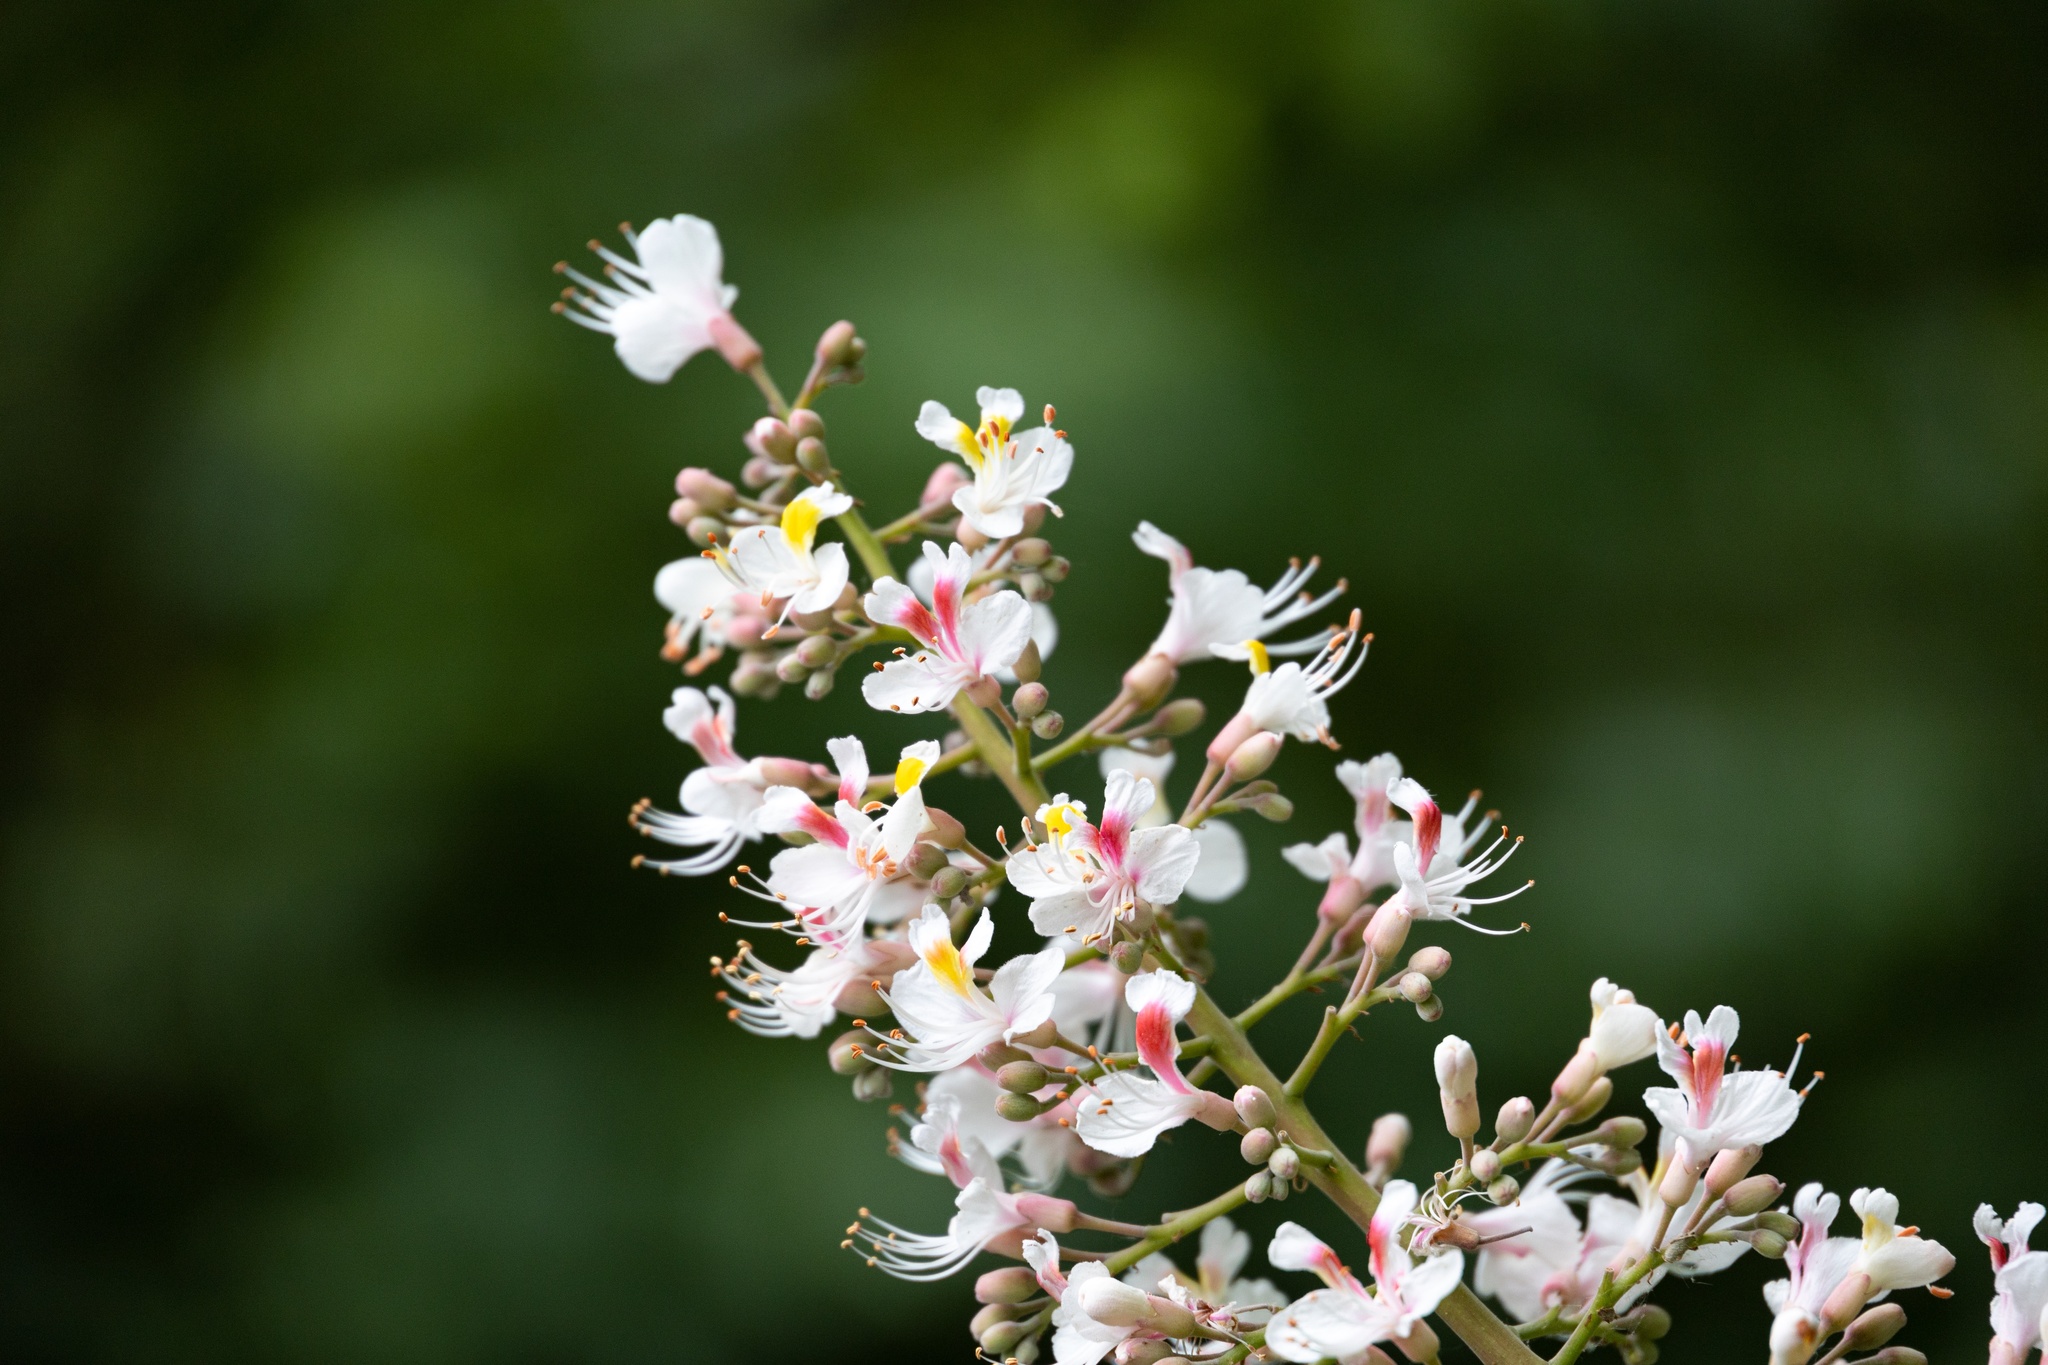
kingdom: Plantae
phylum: Tracheophyta
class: Magnoliopsida
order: Sapindales
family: Sapindaceae
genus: Aesculus
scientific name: Aesculus hippocastanum
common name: Horse-chestnut
